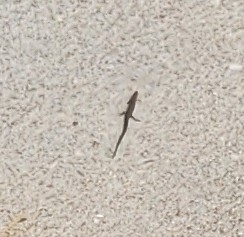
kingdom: Animalia
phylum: Chordata
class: Squamata
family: Scincidae
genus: Scincella
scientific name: Scincella lateralis
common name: Ground skink
